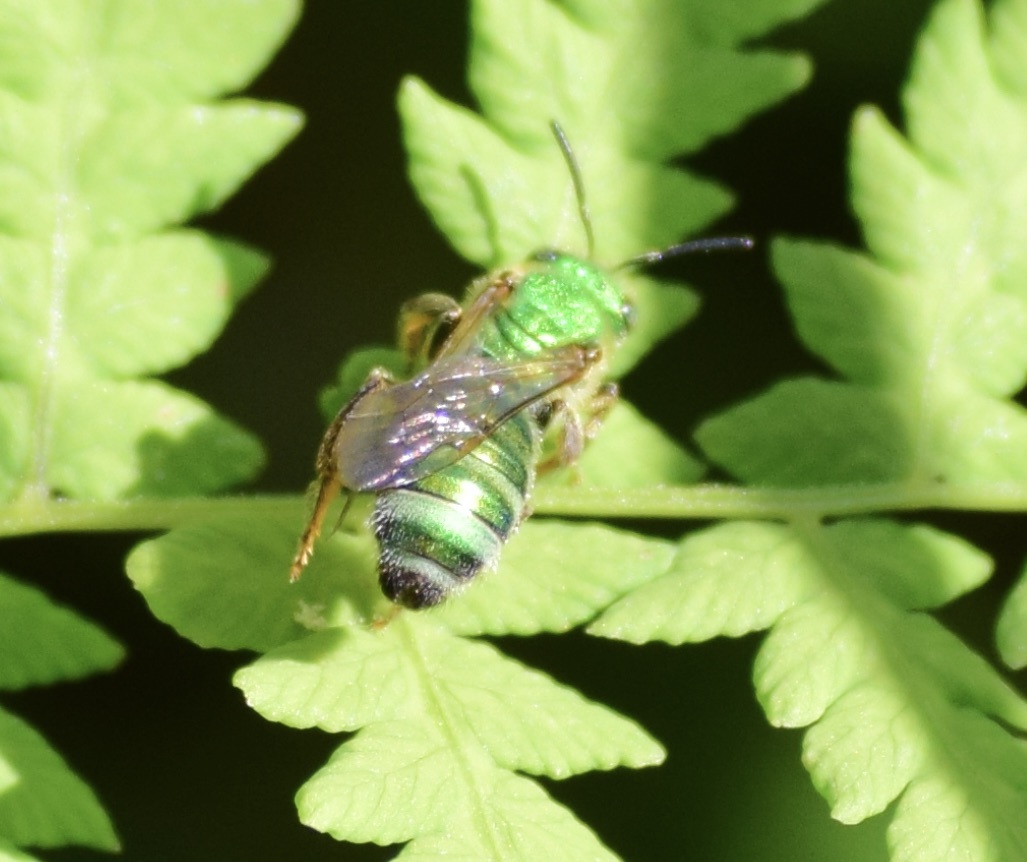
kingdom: Animalia
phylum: Arthropoda
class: Insecta
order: Hymenoptera
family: Halictidae
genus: Agapostemon
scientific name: Agapostemon sericeus
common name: Silky striped sweat bee
